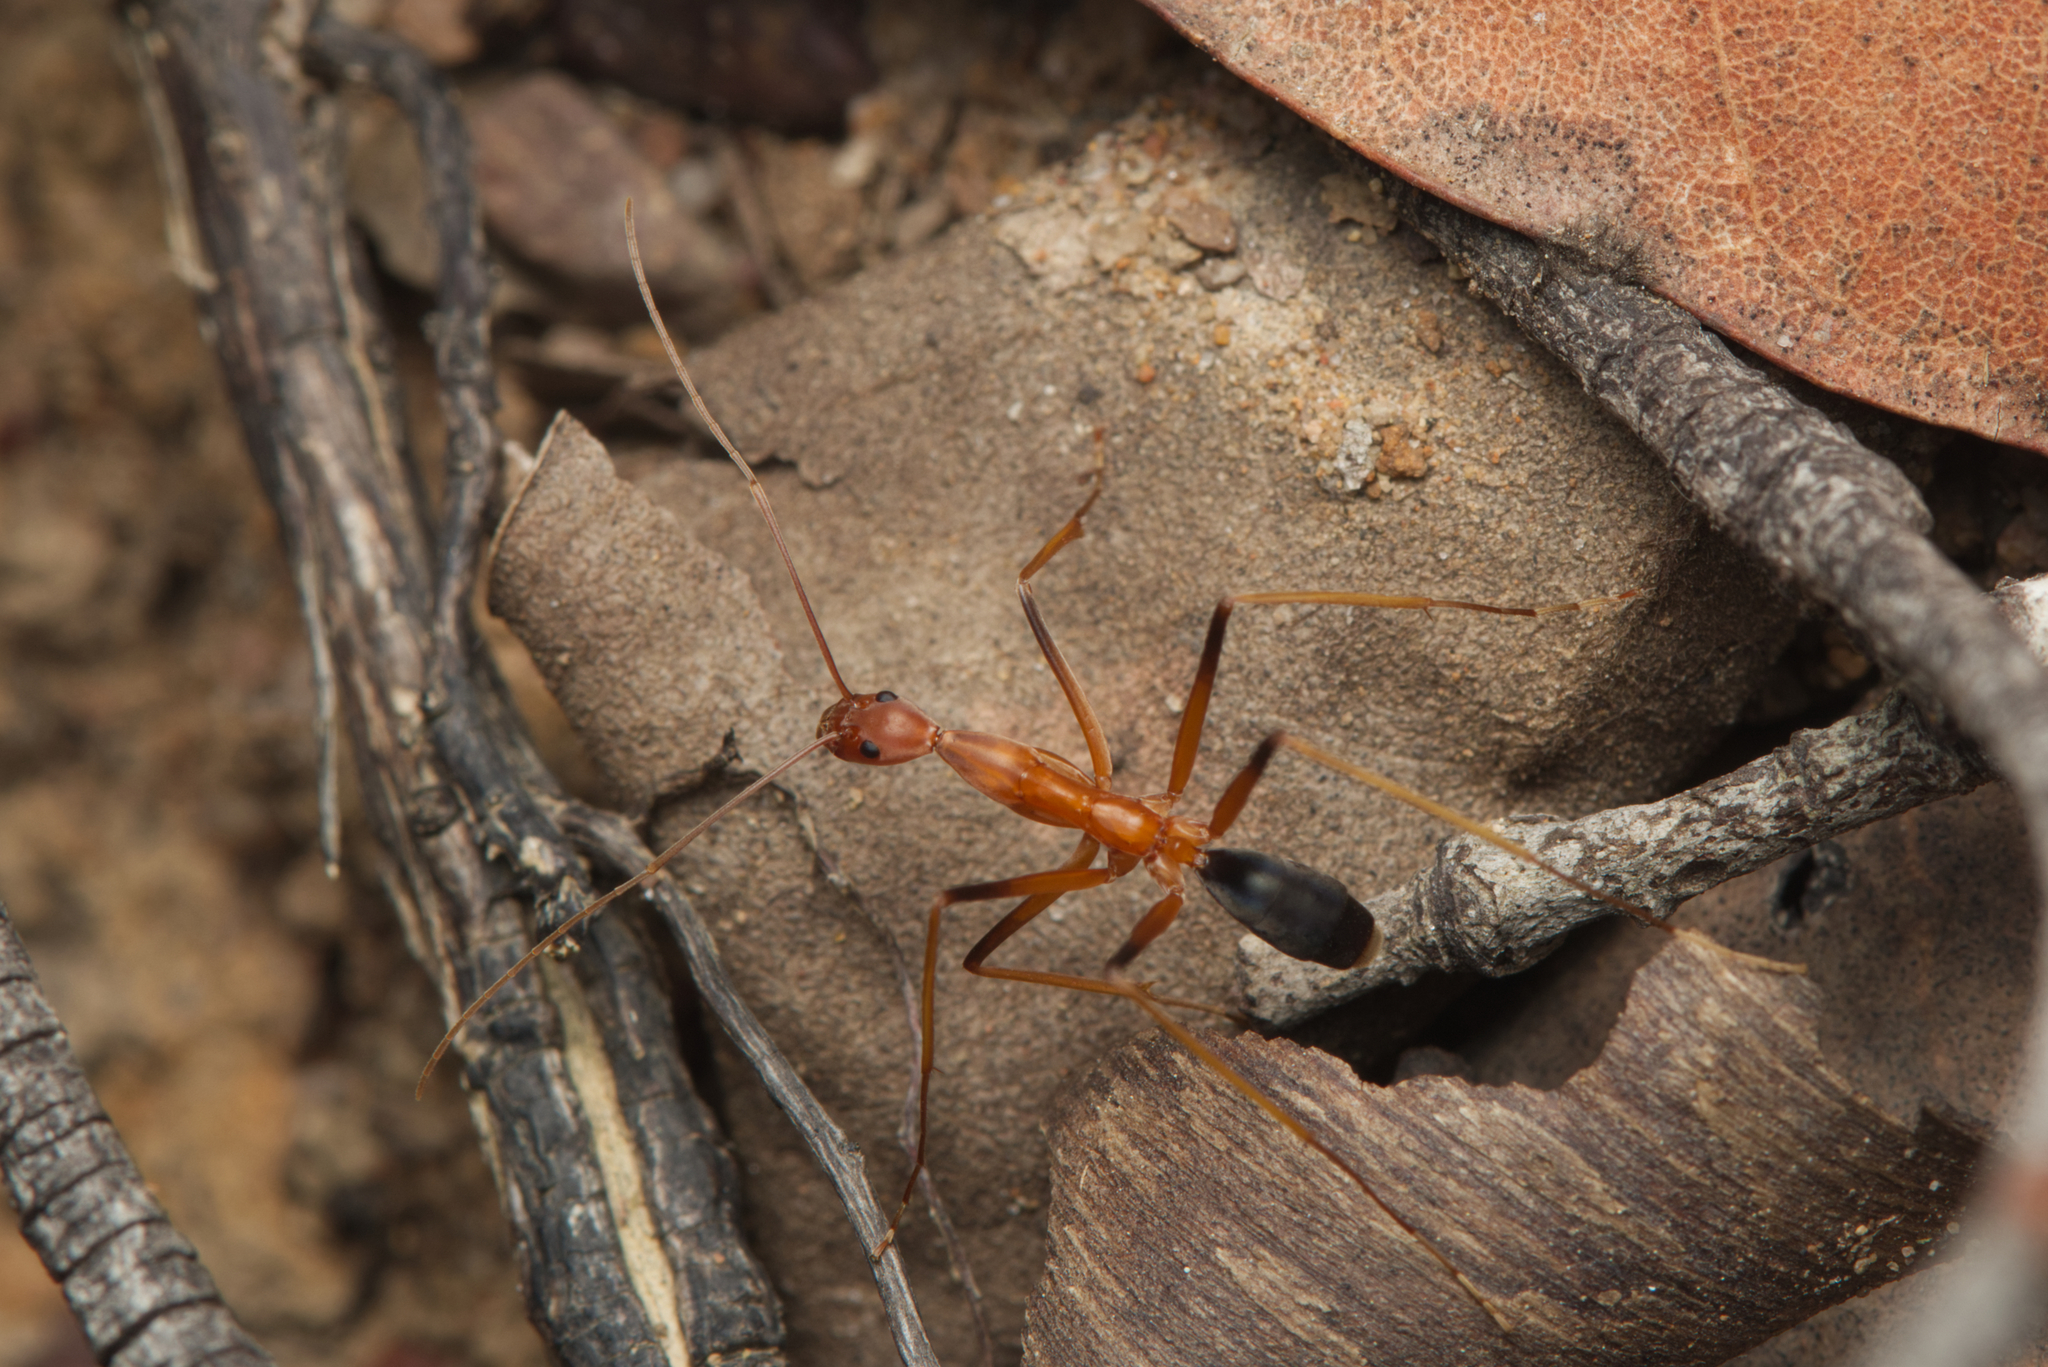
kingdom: Animalia
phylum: Arthropoda
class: Insecta
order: Hymenoptera
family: Formicidae
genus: Leptomyrmex
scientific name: Leptomyrmex rufipes
